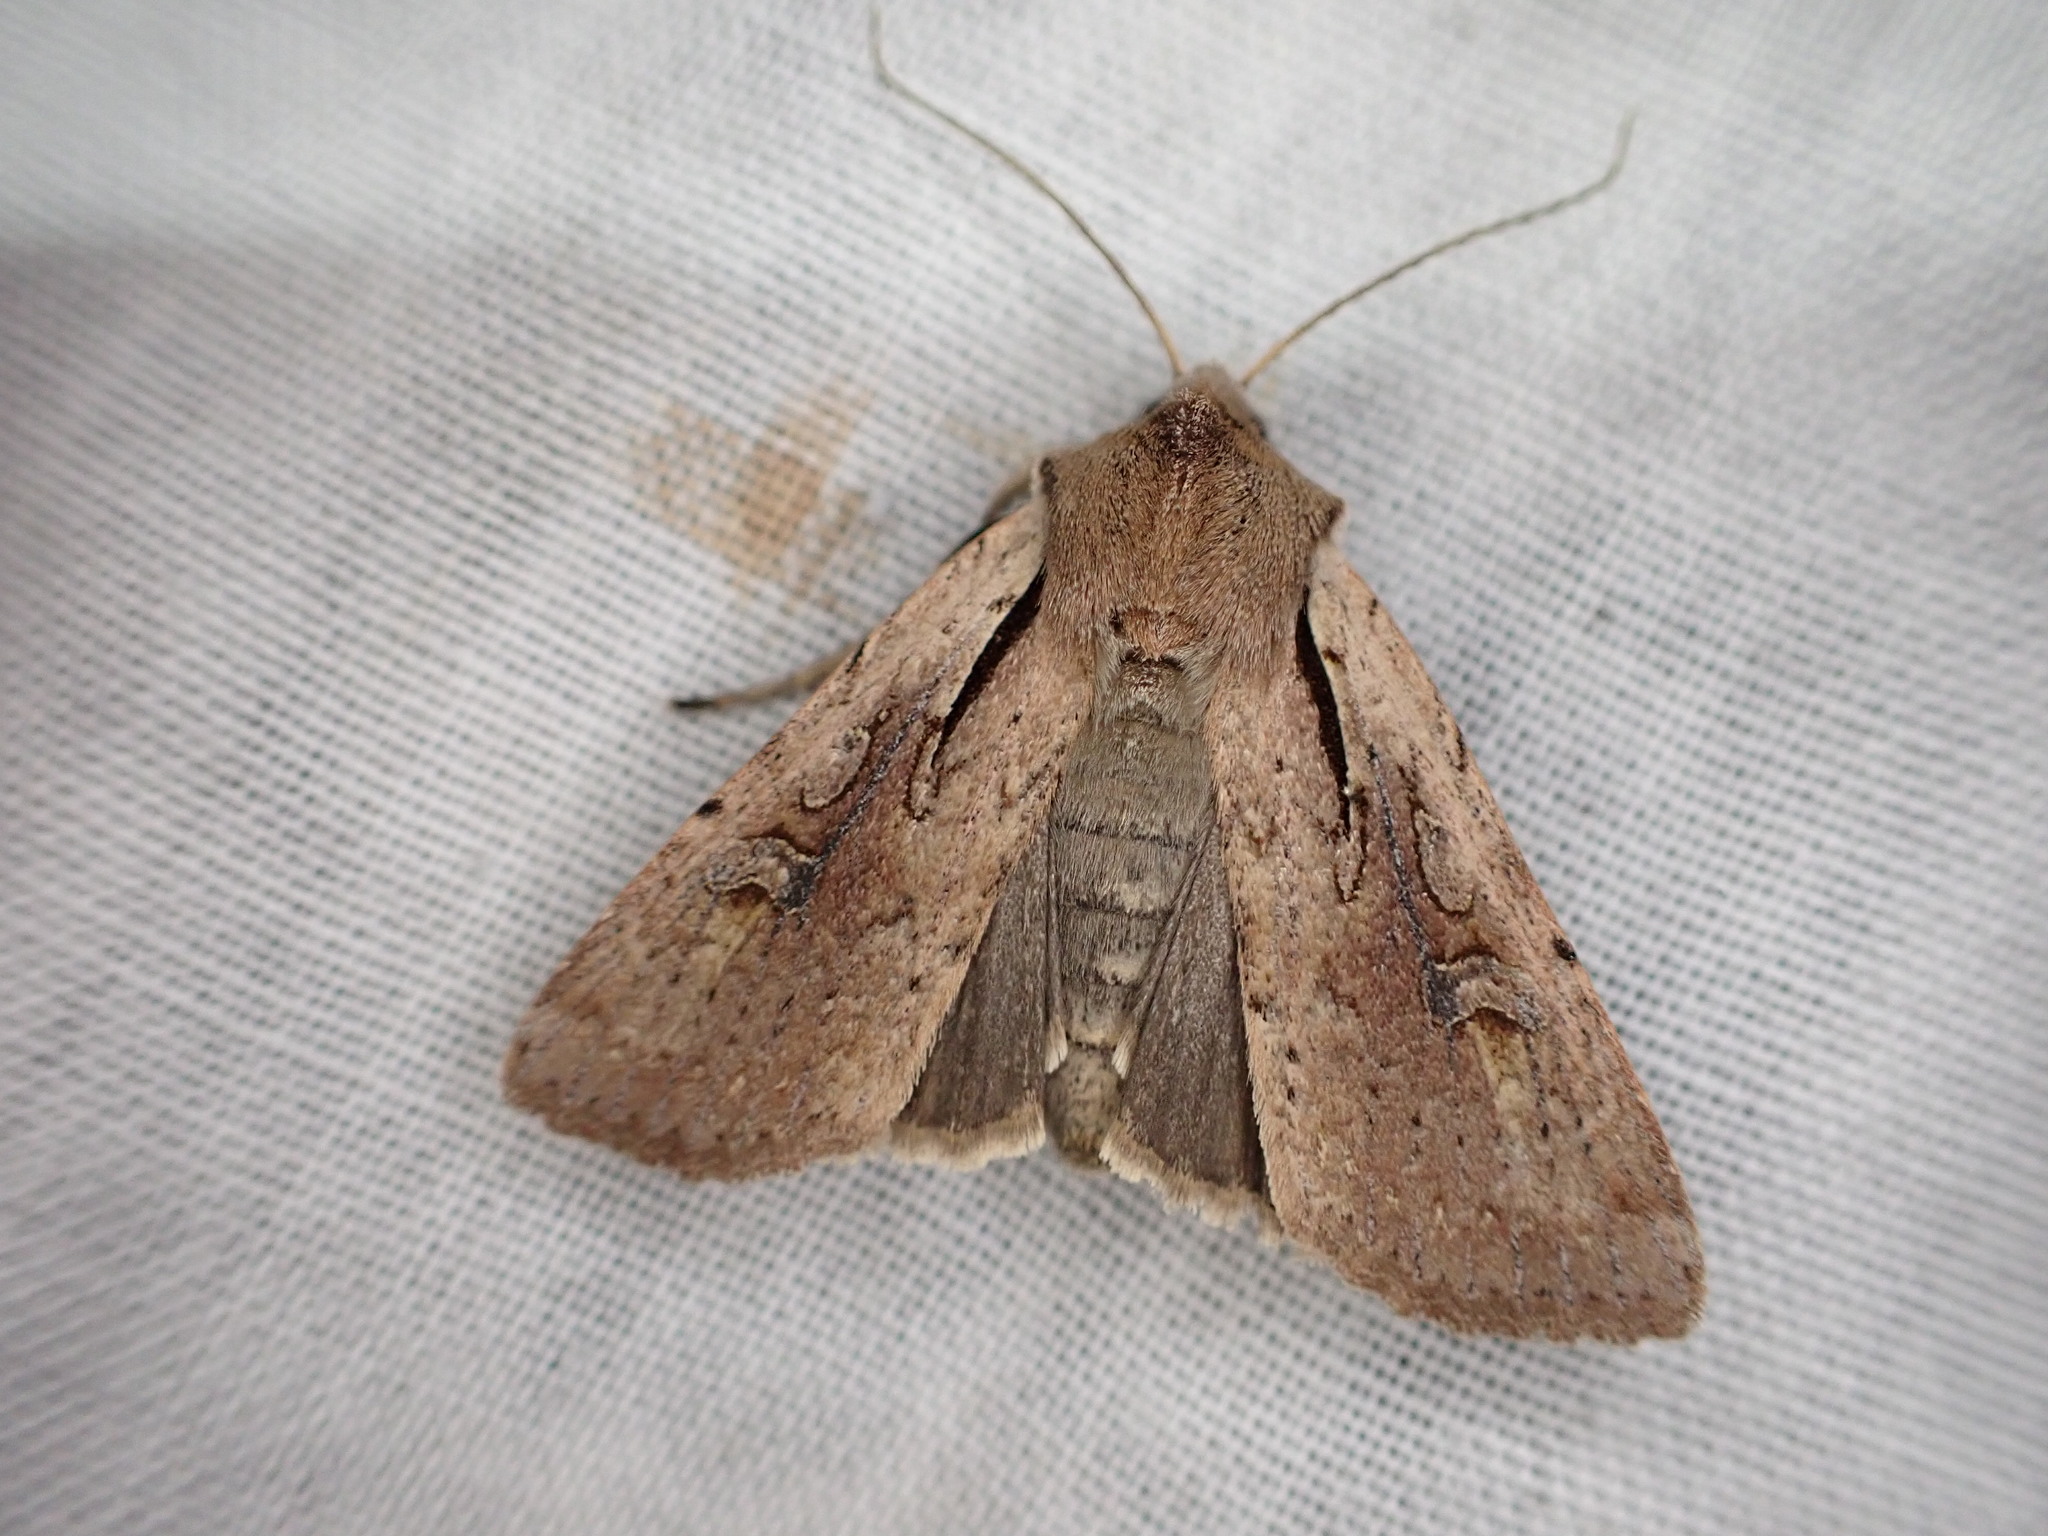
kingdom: Animalia
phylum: Arthropoda
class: Insecta
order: Lepidoptera
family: Noctuidae
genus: Ichneutica
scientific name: Ichneutica atristriga
